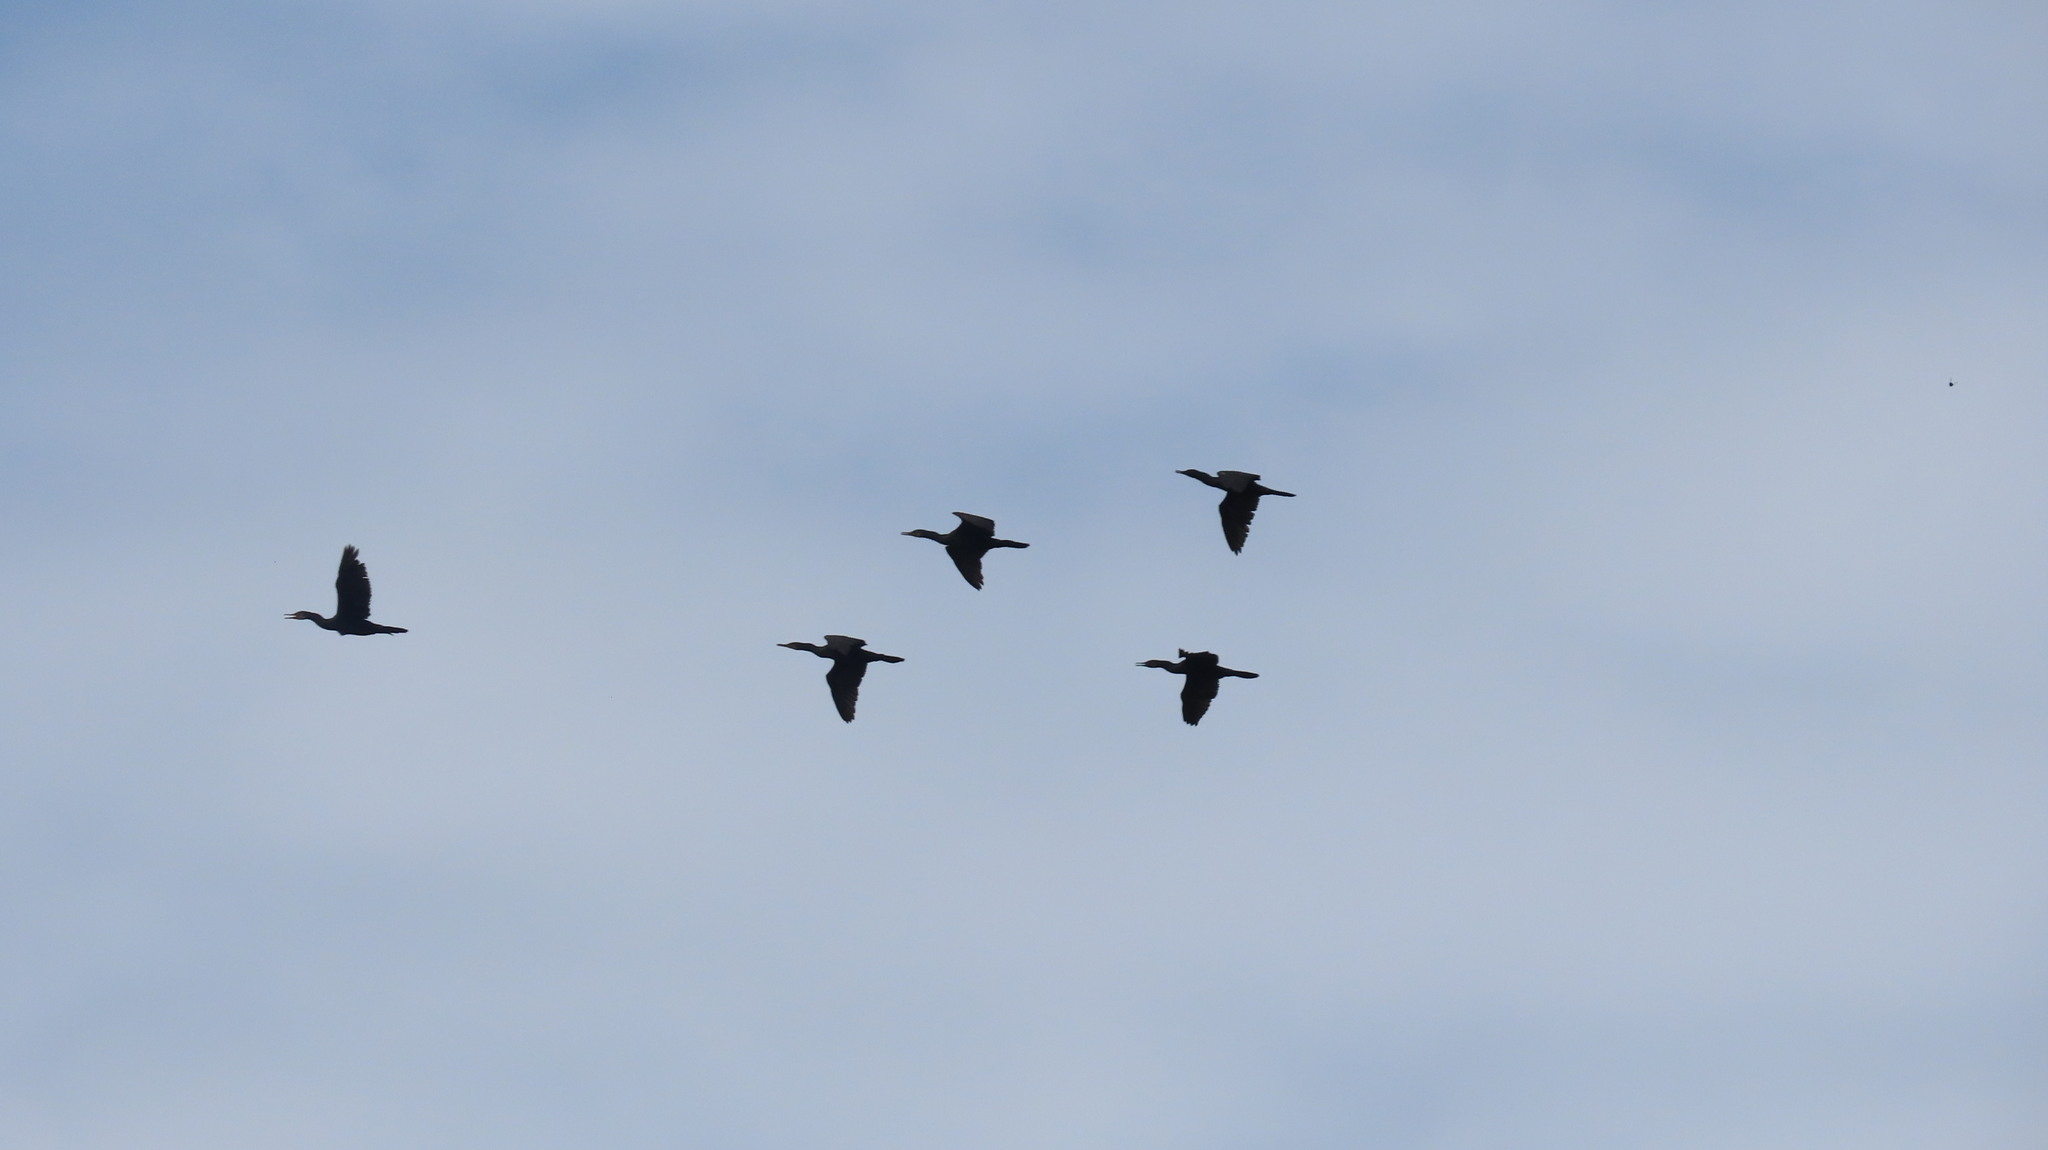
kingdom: Animalia
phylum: Chordata
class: Aves
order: Suliformes
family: Phalacrocoracidae
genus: Phalacrocorax
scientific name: Phalacrocorax fuscicollis
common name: Indian cormorant
